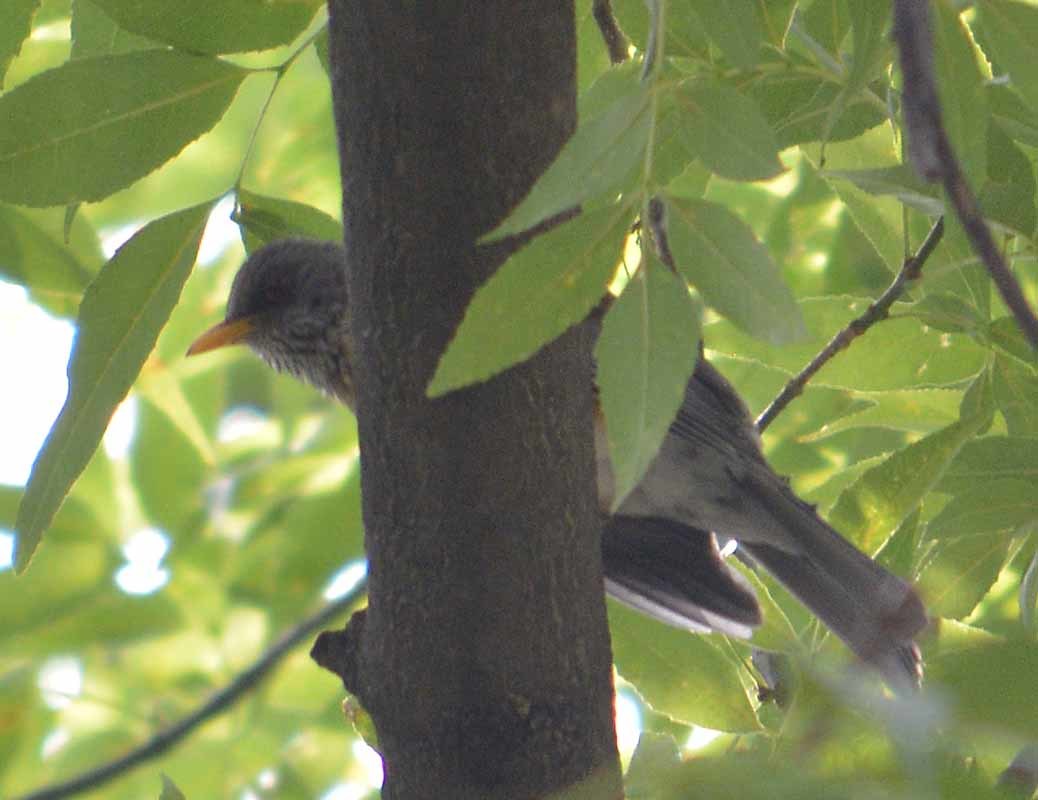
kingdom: Animalia
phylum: Chordata
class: Aves
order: Passeriformes
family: Turdidae
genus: Turdus
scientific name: Turdus rufopalliatus
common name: Rufous-backed robin
